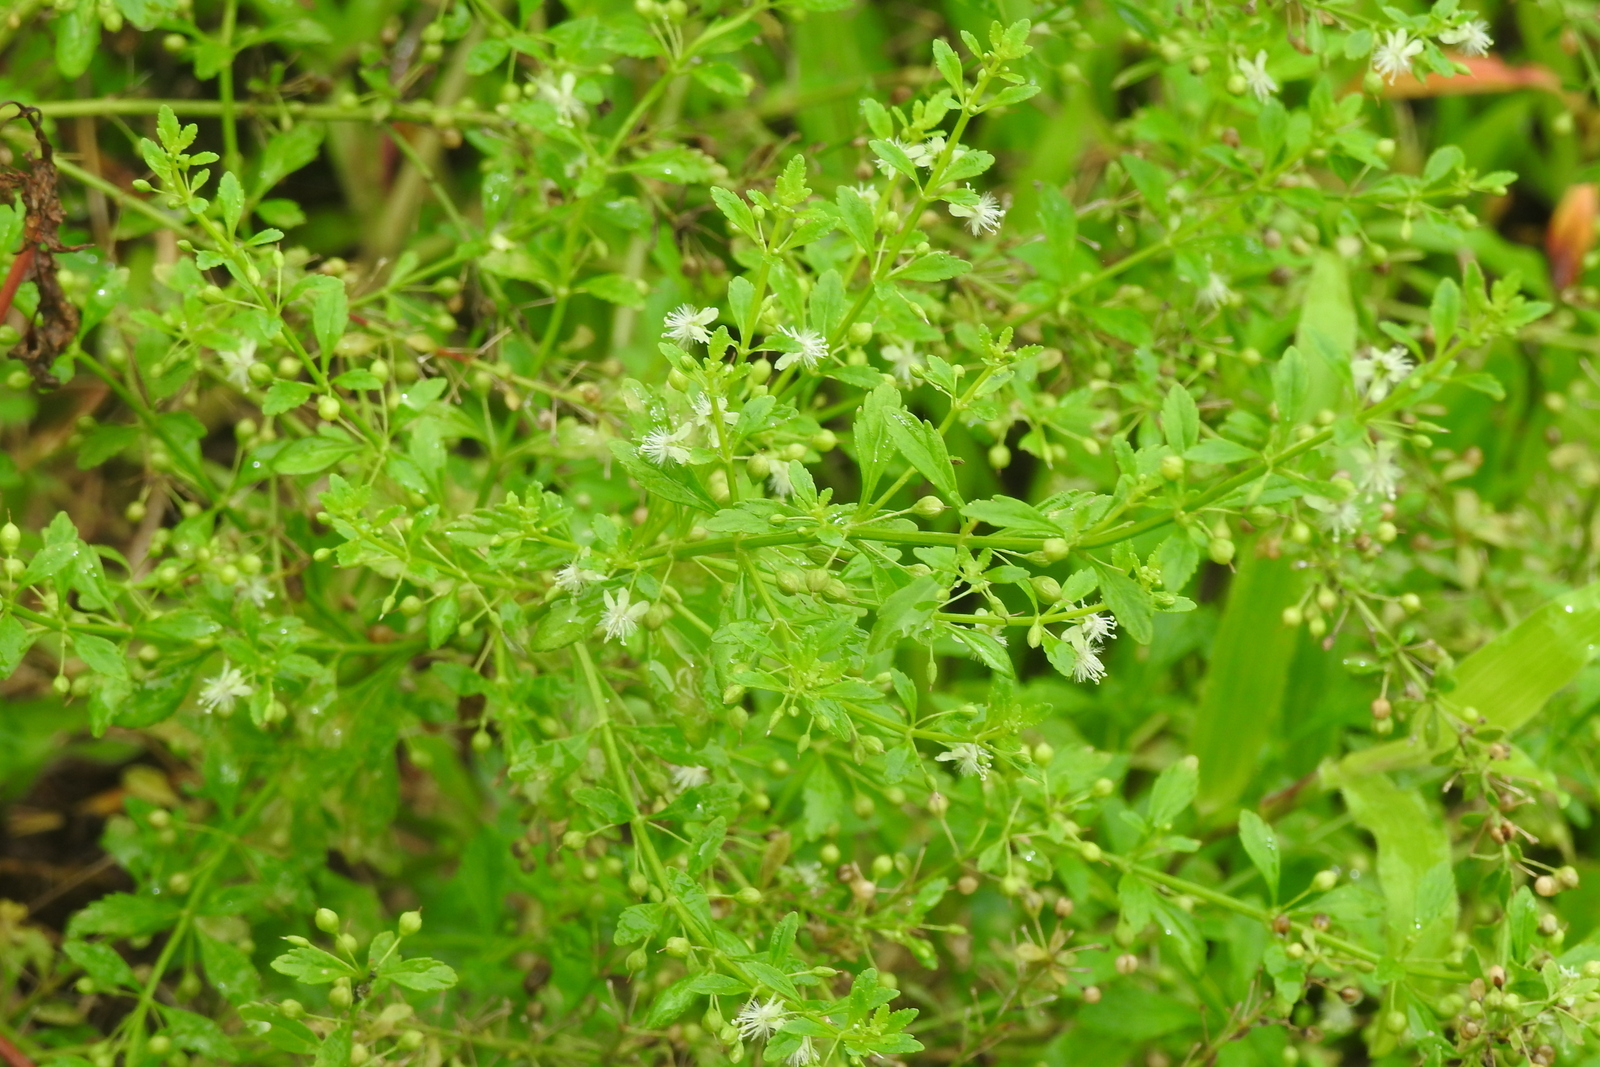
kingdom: Plantae
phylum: Tracheophyta
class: Magnoliopsida
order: Lamiales
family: Plantaginaceae
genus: Scoparia
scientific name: Scoparia dulcis
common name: Scoparia-weed
